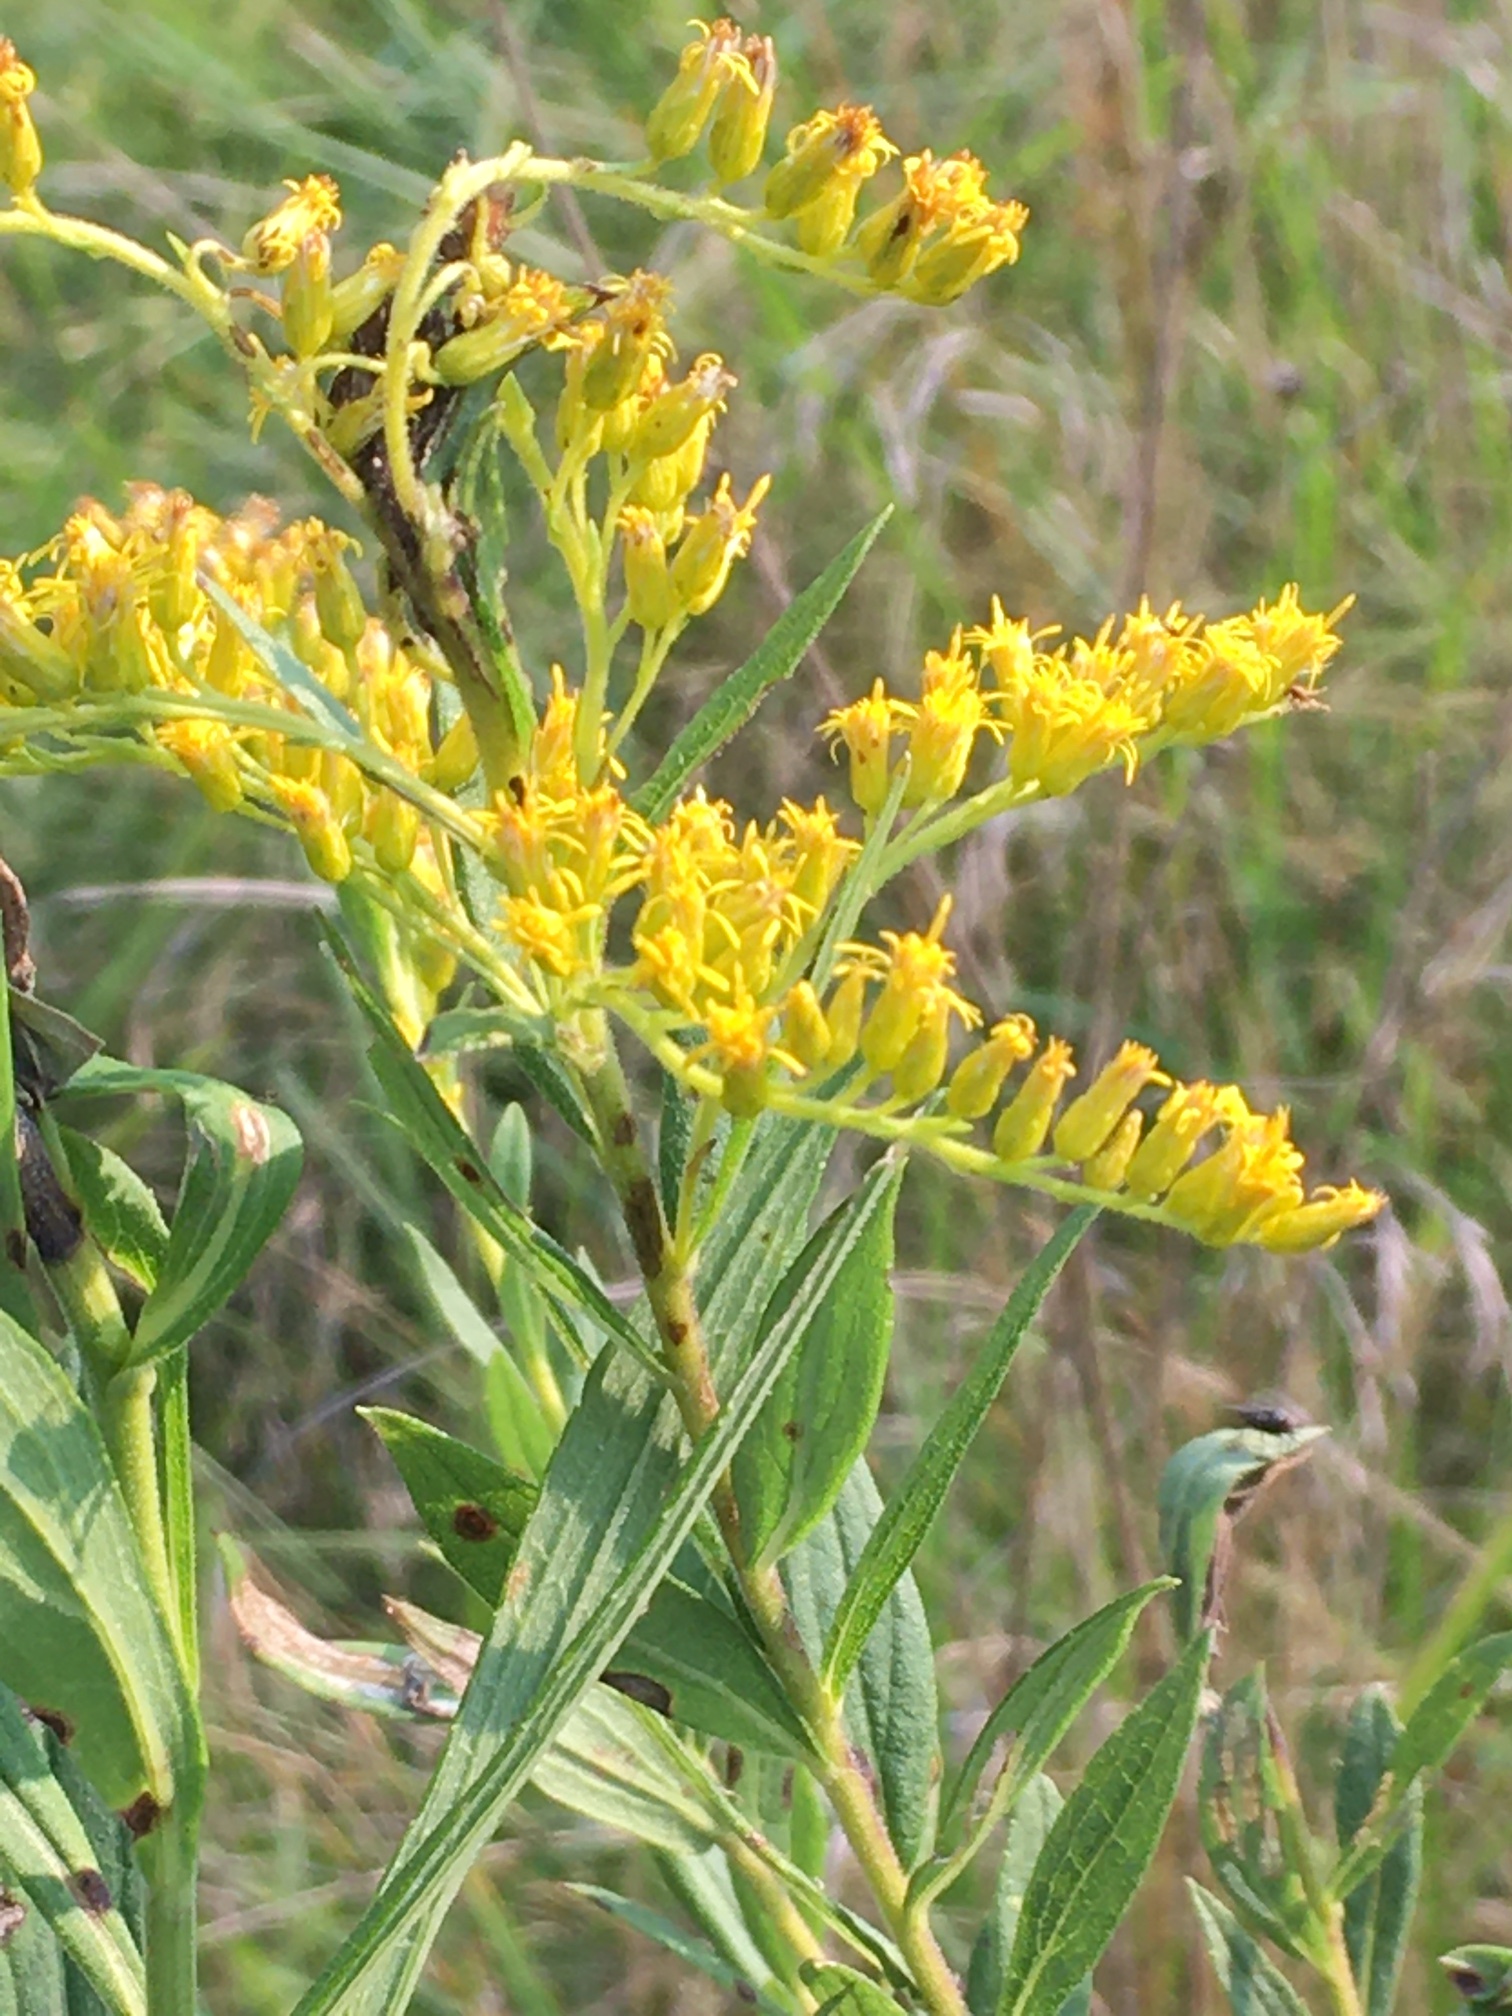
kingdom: Plantae
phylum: Tracheophyta
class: Magnoliopsida
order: Asterales
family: Asteraceae
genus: Solidago
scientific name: Solidago altissima
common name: Late goldenrod
